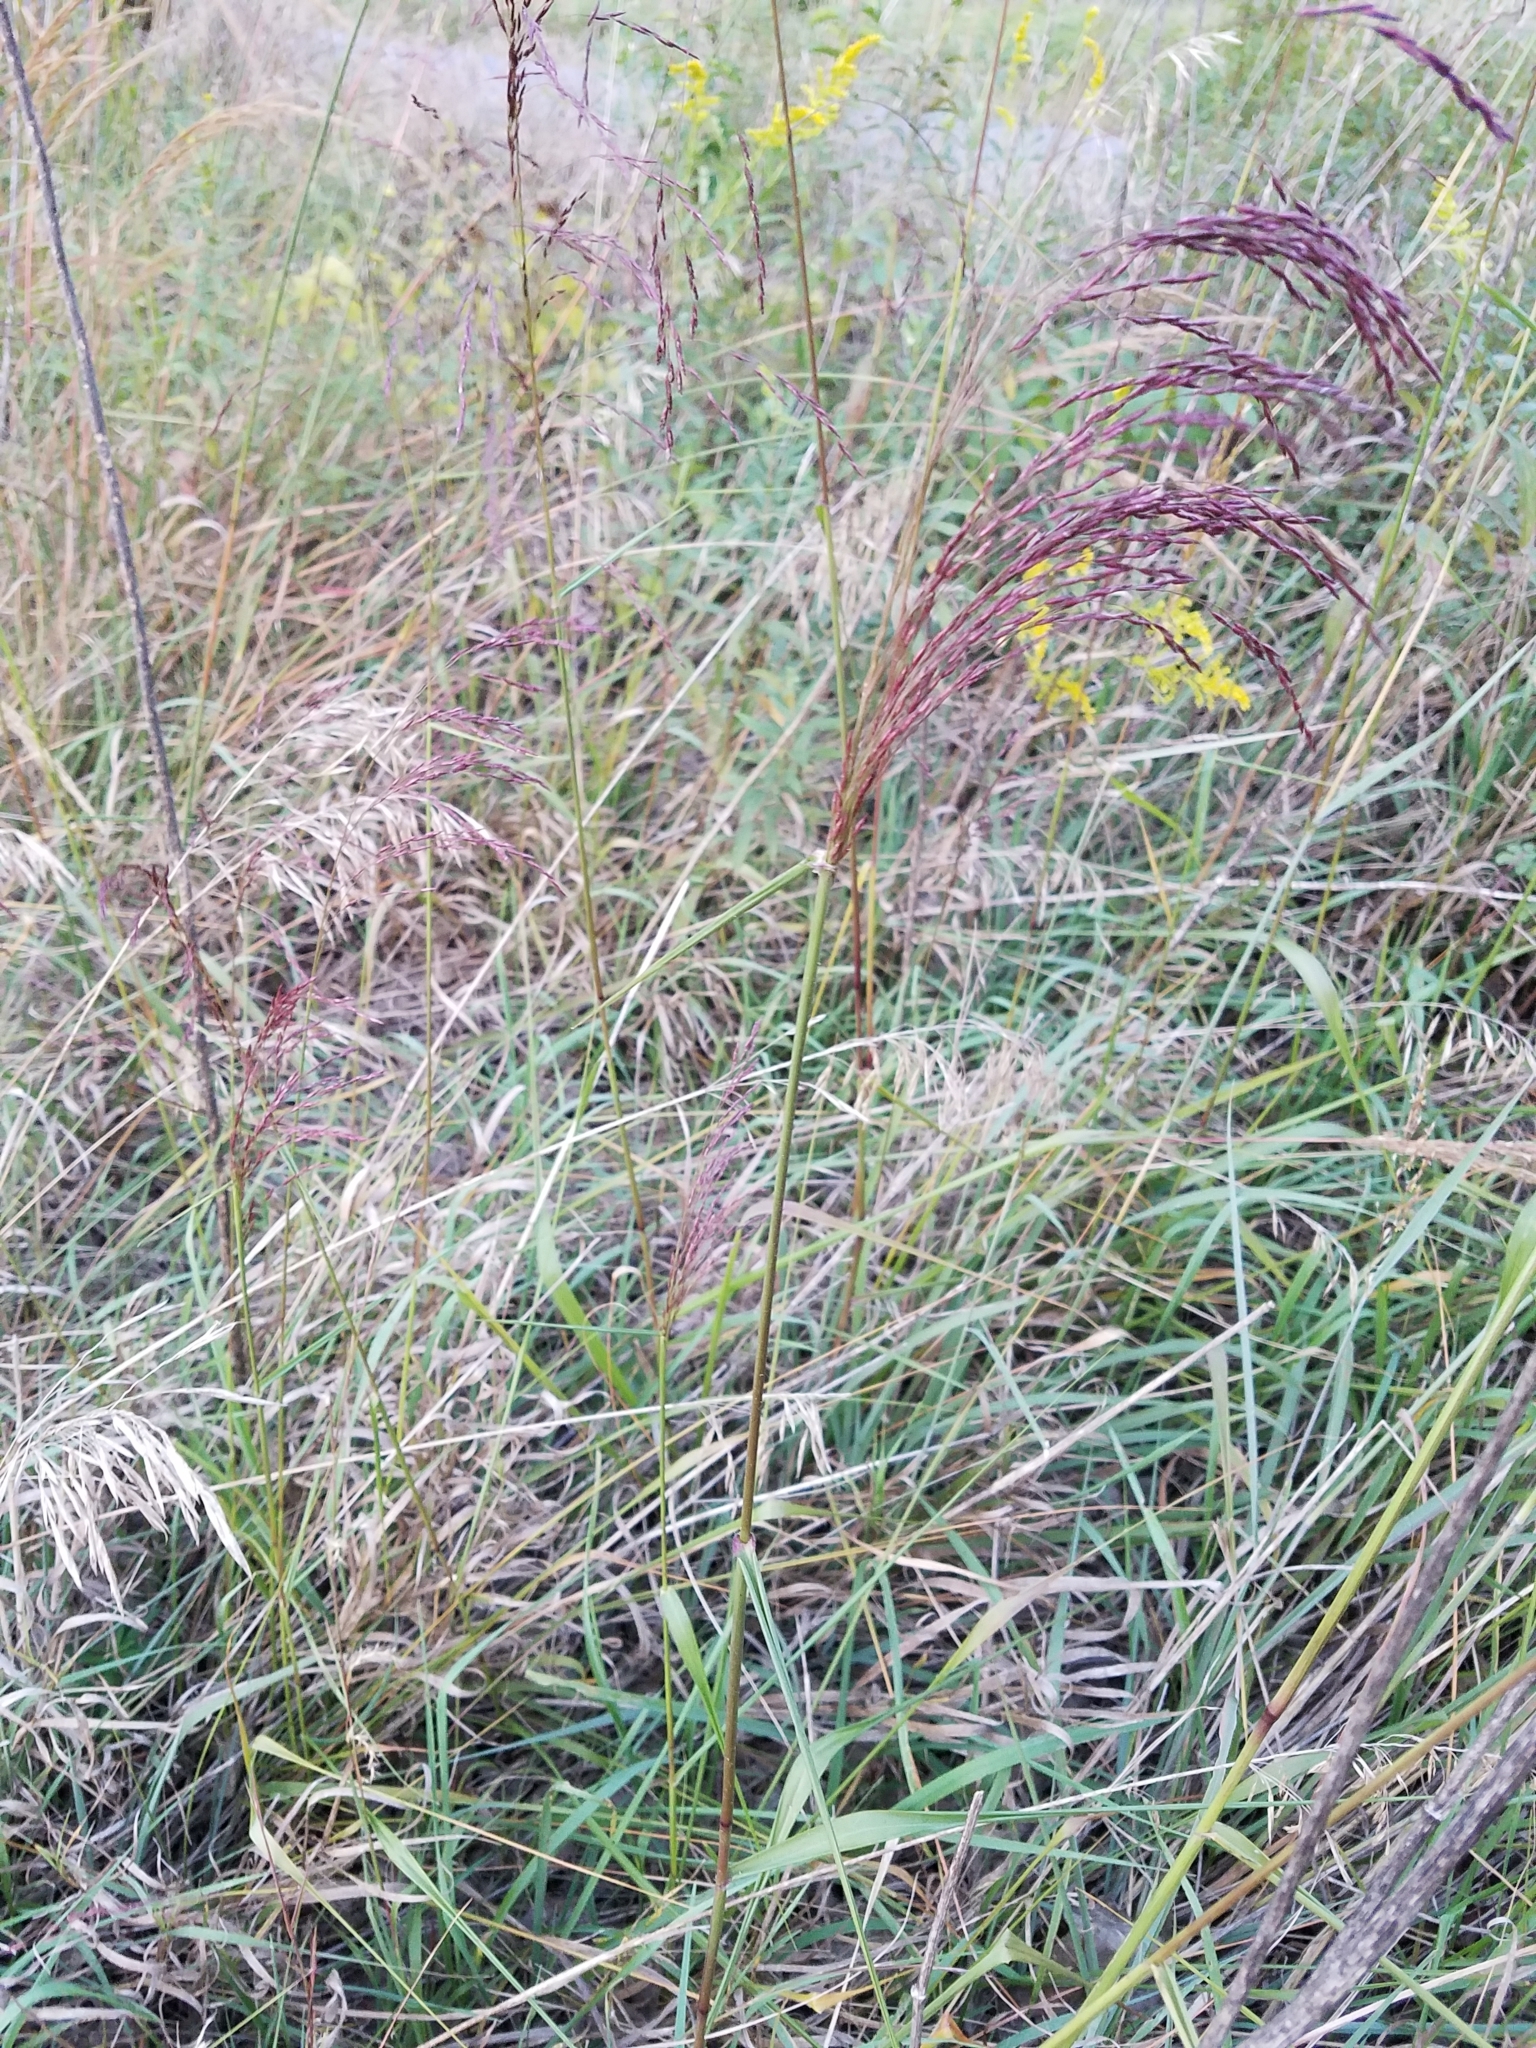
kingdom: Plantae
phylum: Tracheophyta
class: Liliopsida
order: Poales
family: Poaceae
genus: Tridens
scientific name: Tridens flavus
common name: Purpletop
